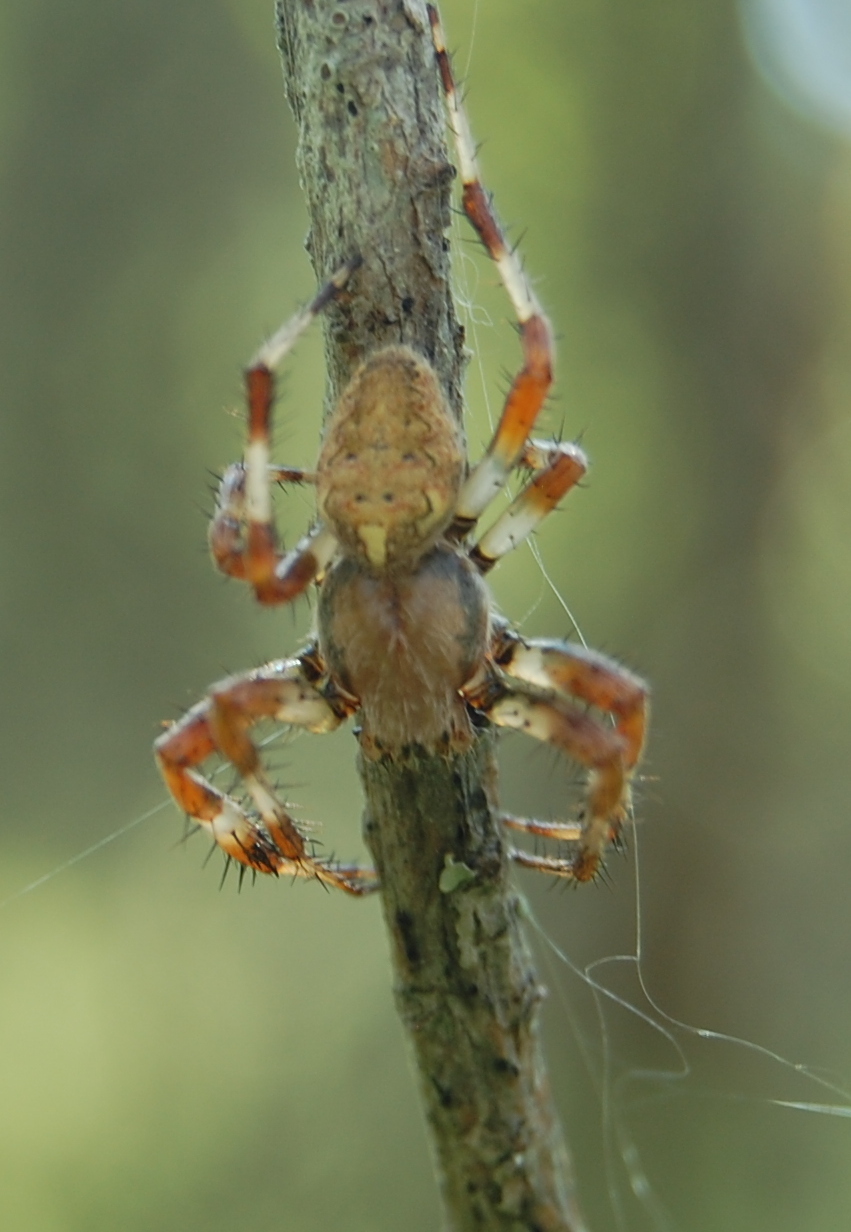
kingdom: Animalia
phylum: Arthropoda
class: Arachnida
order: Araneae
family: Araneidae
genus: Araneus
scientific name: Araneus quadratus
